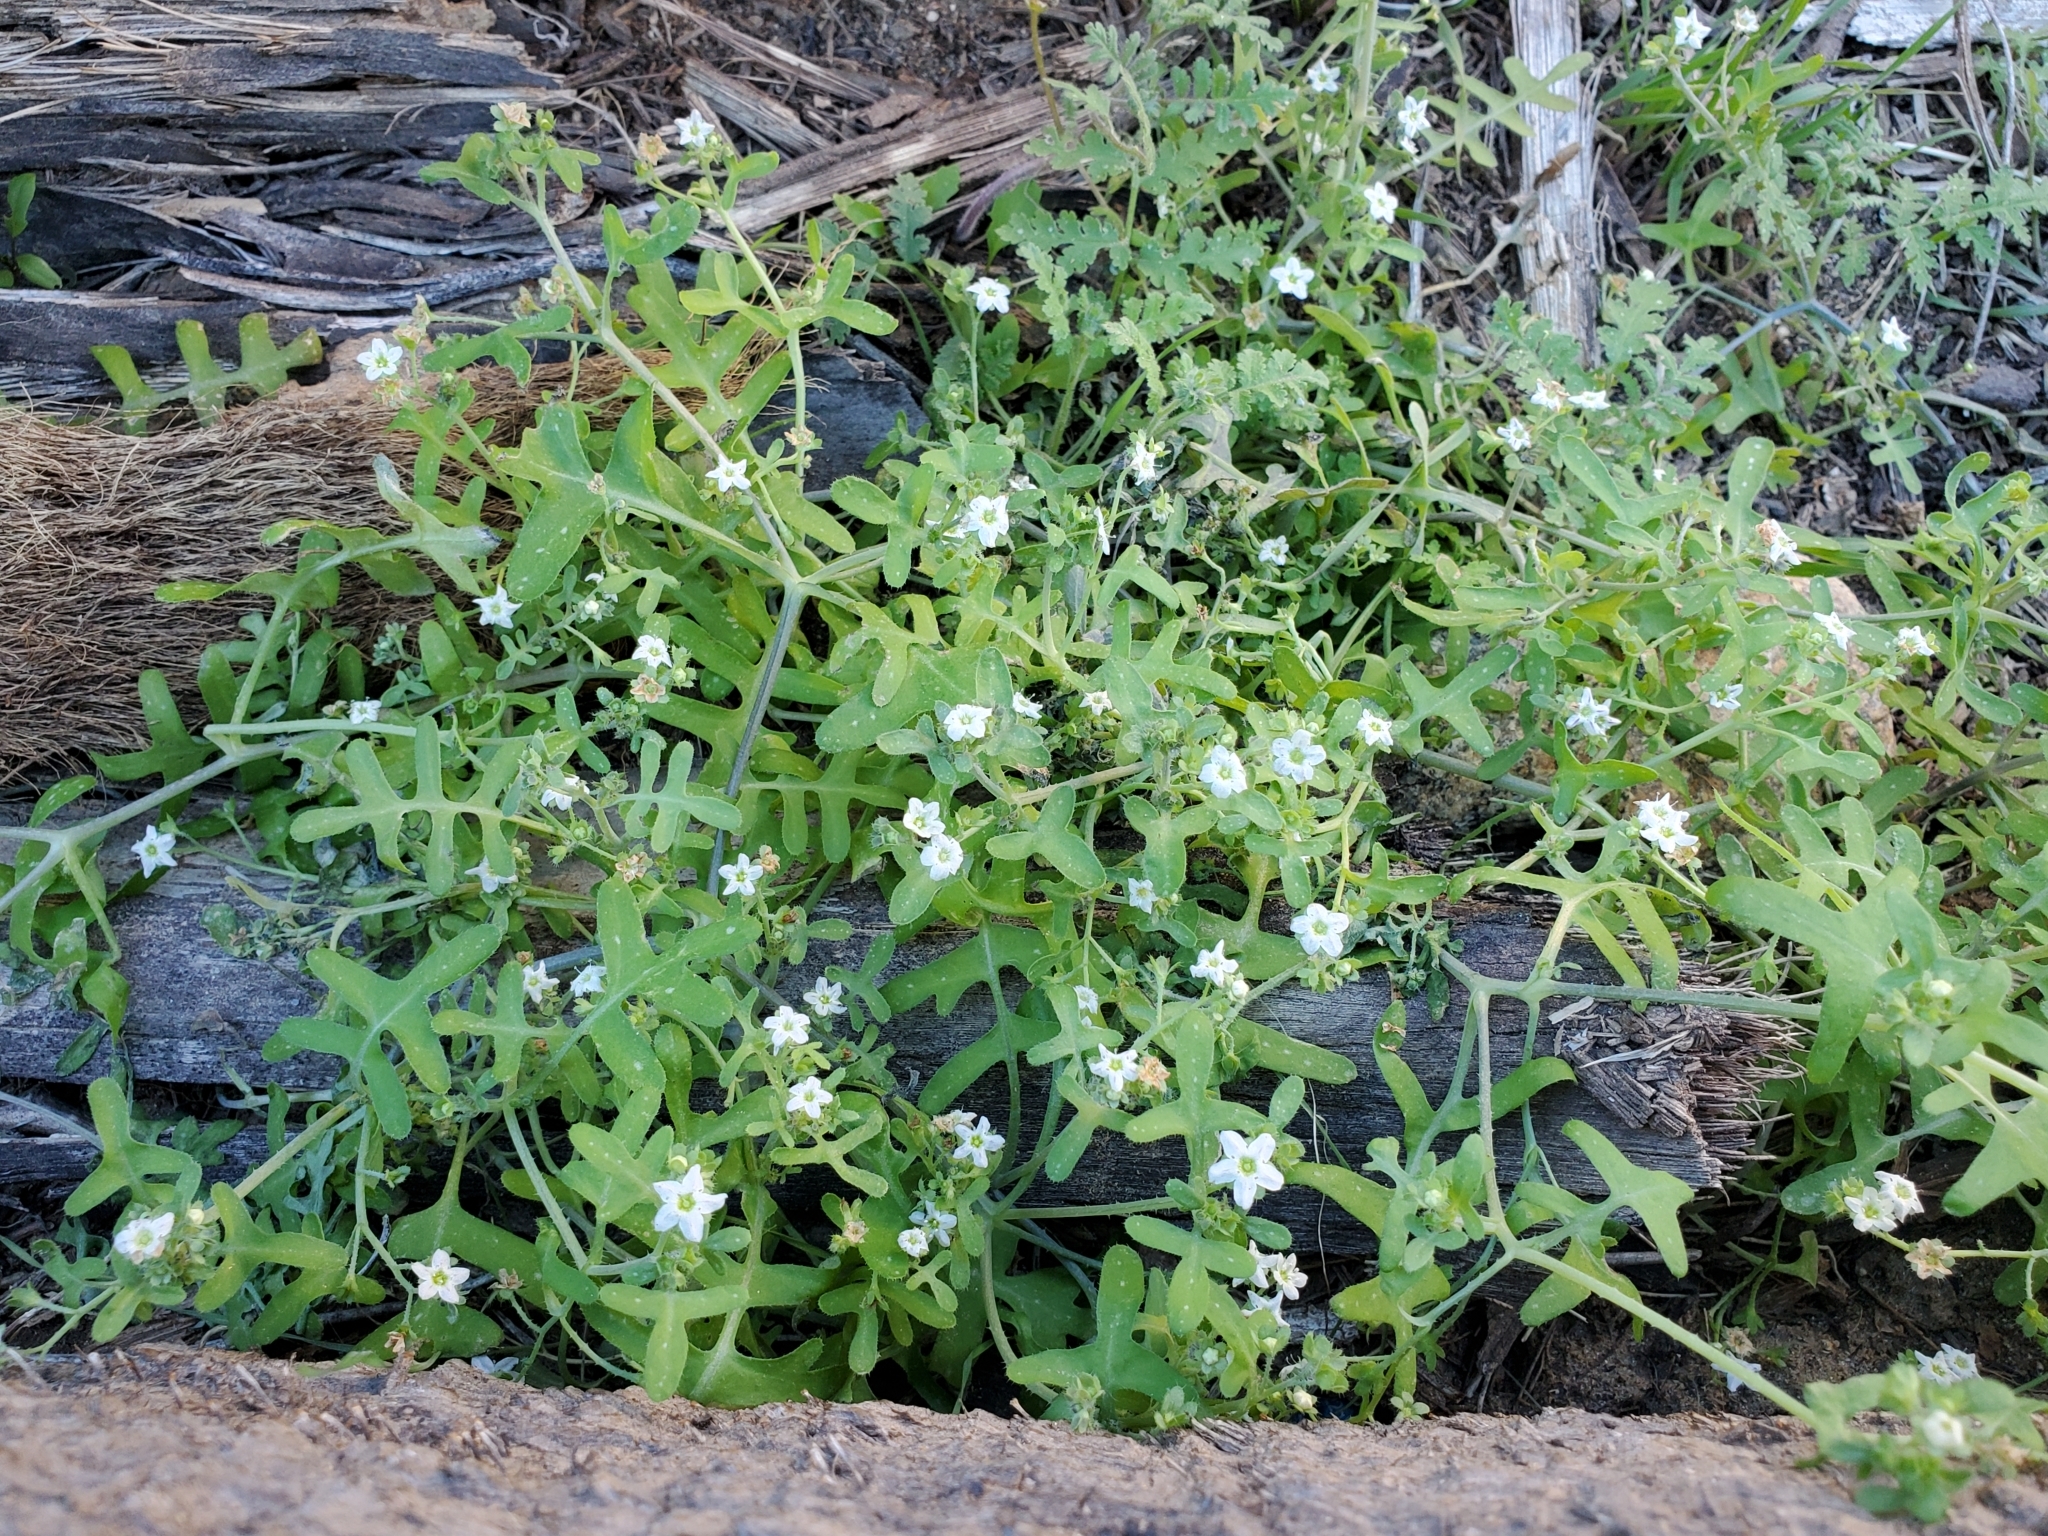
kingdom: Plantae
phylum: Tracheophyta
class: Magnoliopsida
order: Boraginales
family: Hydrophyllaceae
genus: Pholistoma
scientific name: Pholistoma membranaceum
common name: White fiesta-flower
